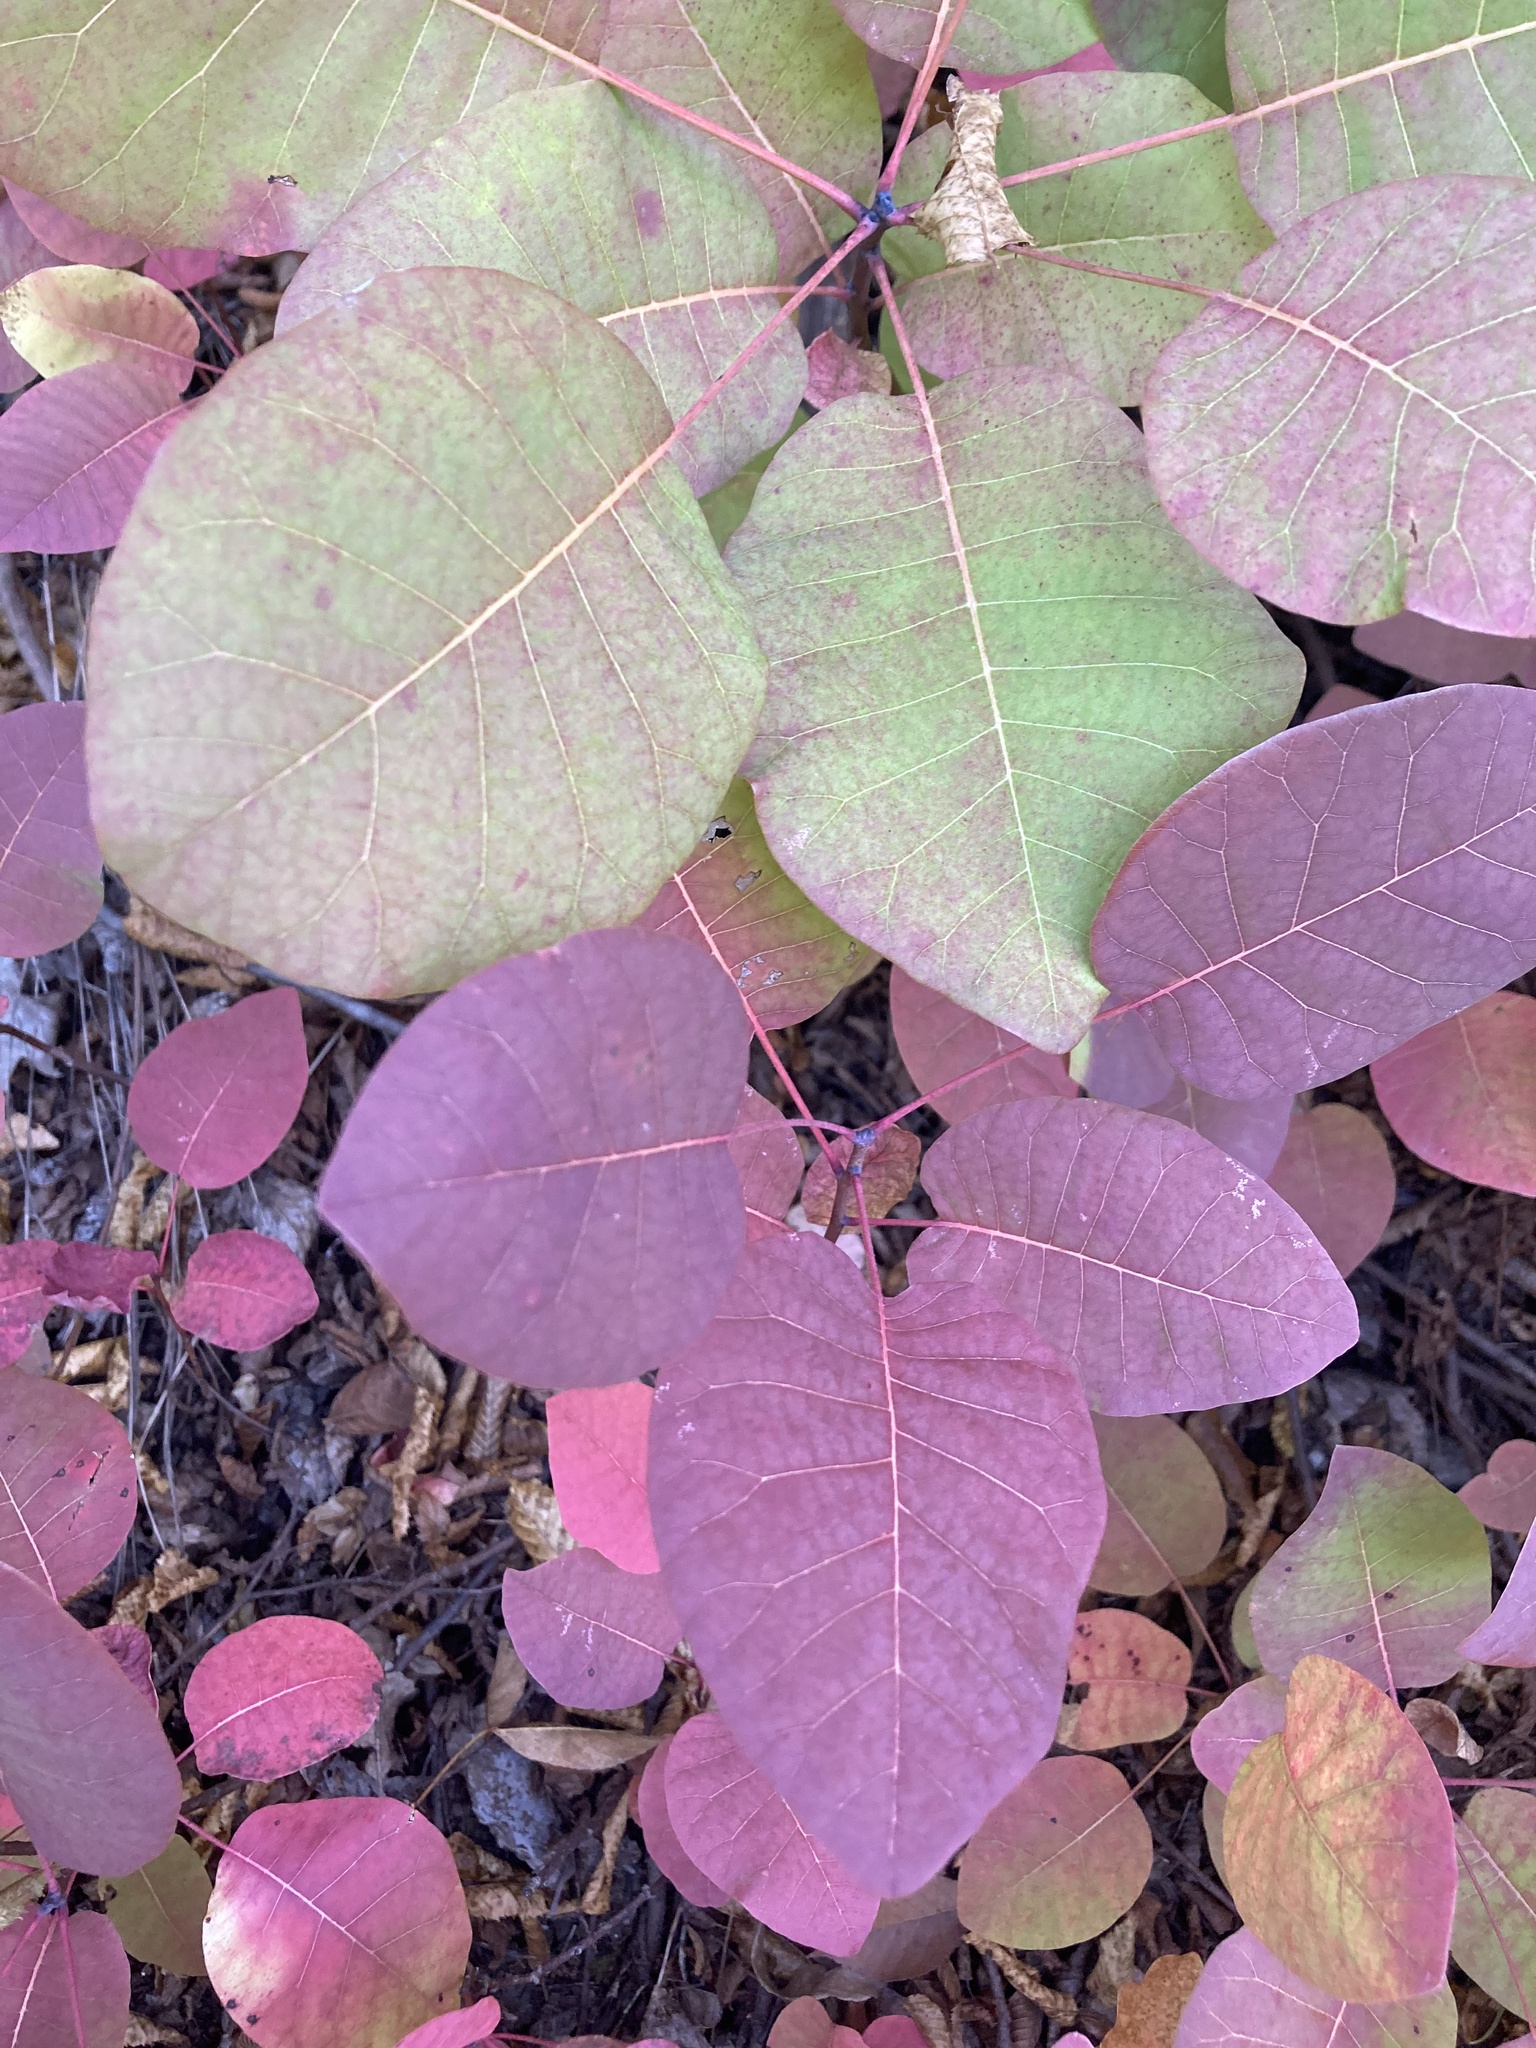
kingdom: Plantae
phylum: Tracheophyta
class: Magnoliopsida
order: Sapindales
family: Anacardiaceae
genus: Cotinus
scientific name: Cotinus coggygria
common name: Smoke-tree
